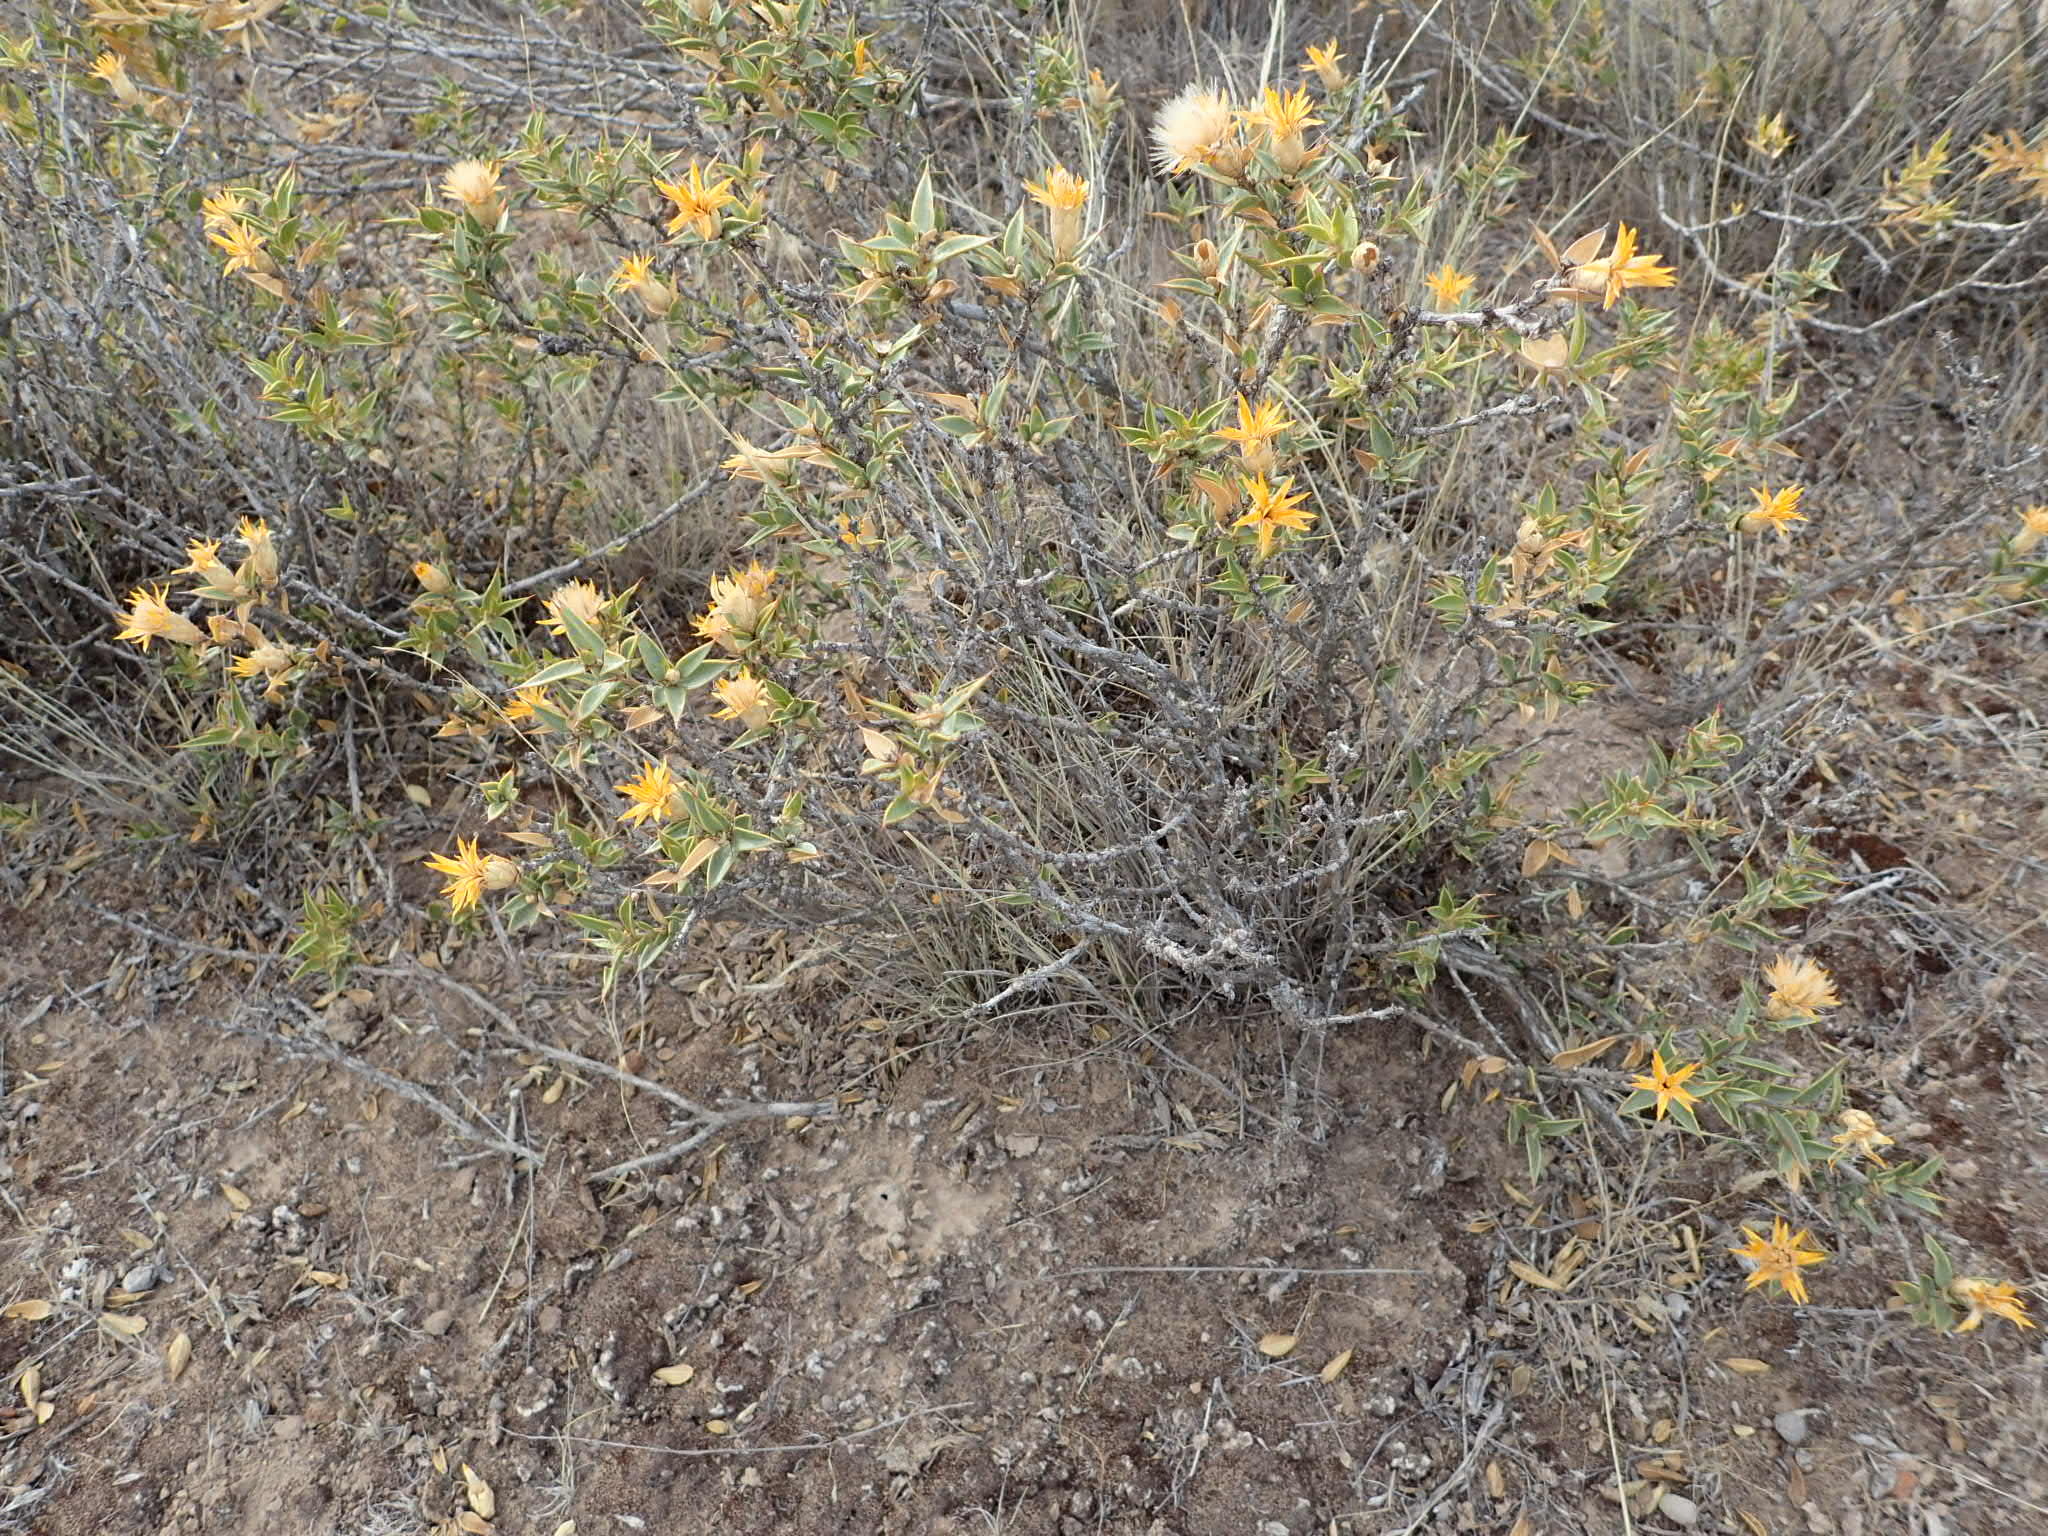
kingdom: Plantae
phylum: Tracheophyta
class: Magnoliopsida
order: Asterales
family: Asteraceae
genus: Chuquiraga
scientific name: Chuquiraga avellanedae
